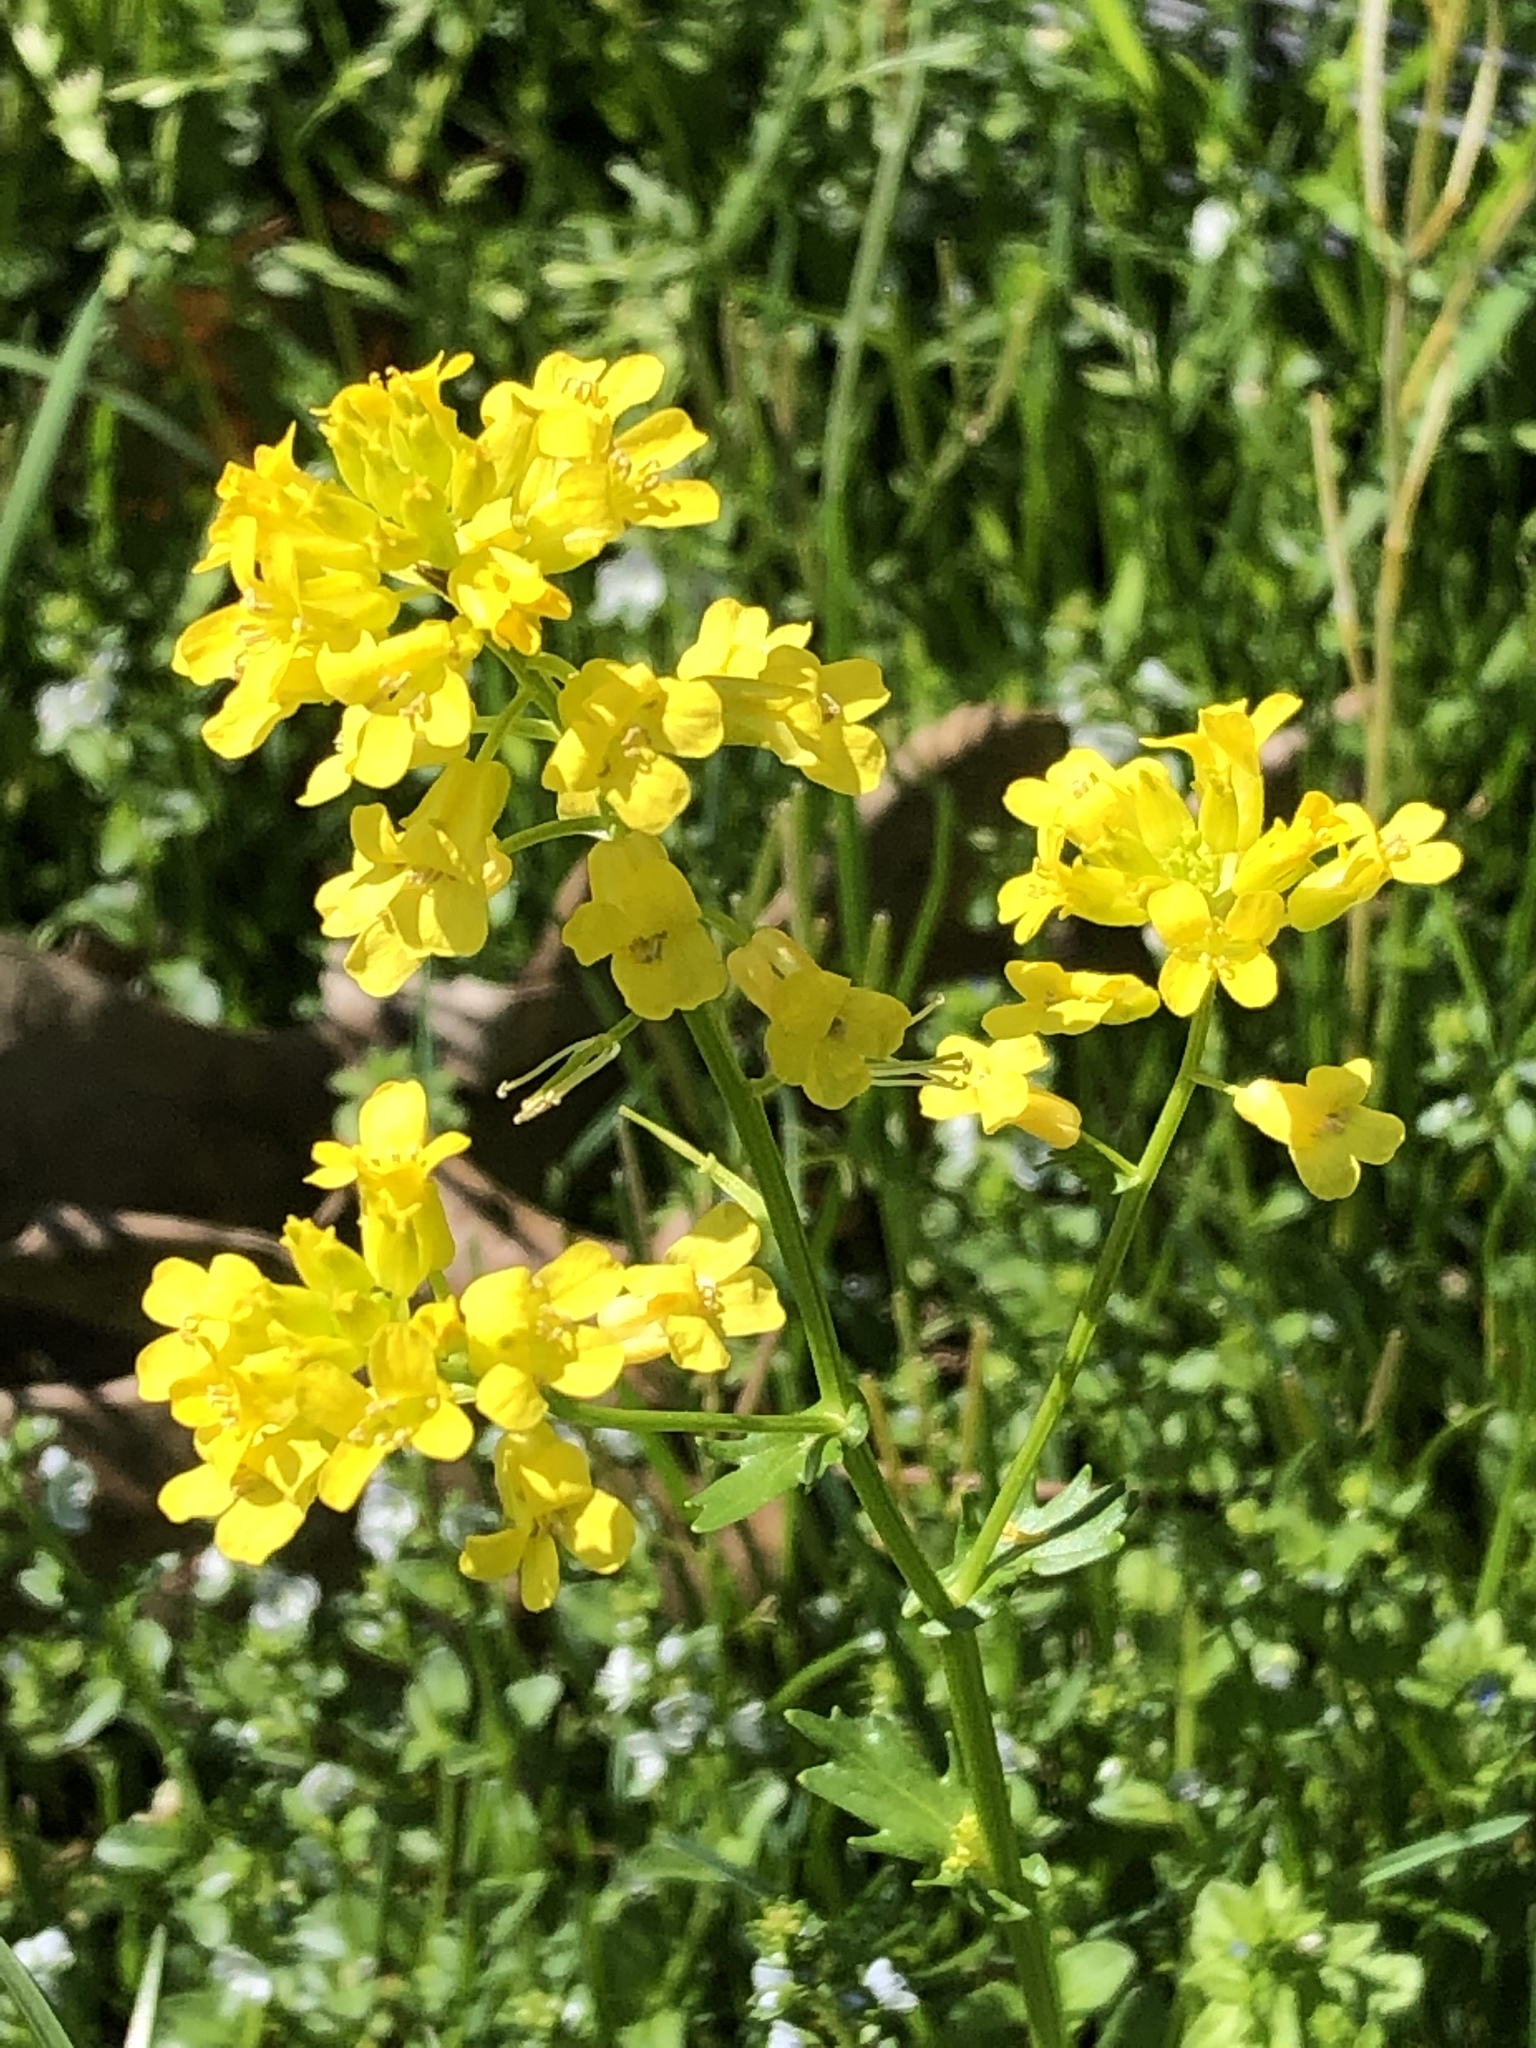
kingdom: Plantae
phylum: Tracheophyta
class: Magnoliopsida
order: Brassicales
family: Brassicaceae
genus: Barbarea
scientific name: Barbarea vulgaris
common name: Cressy-greens
